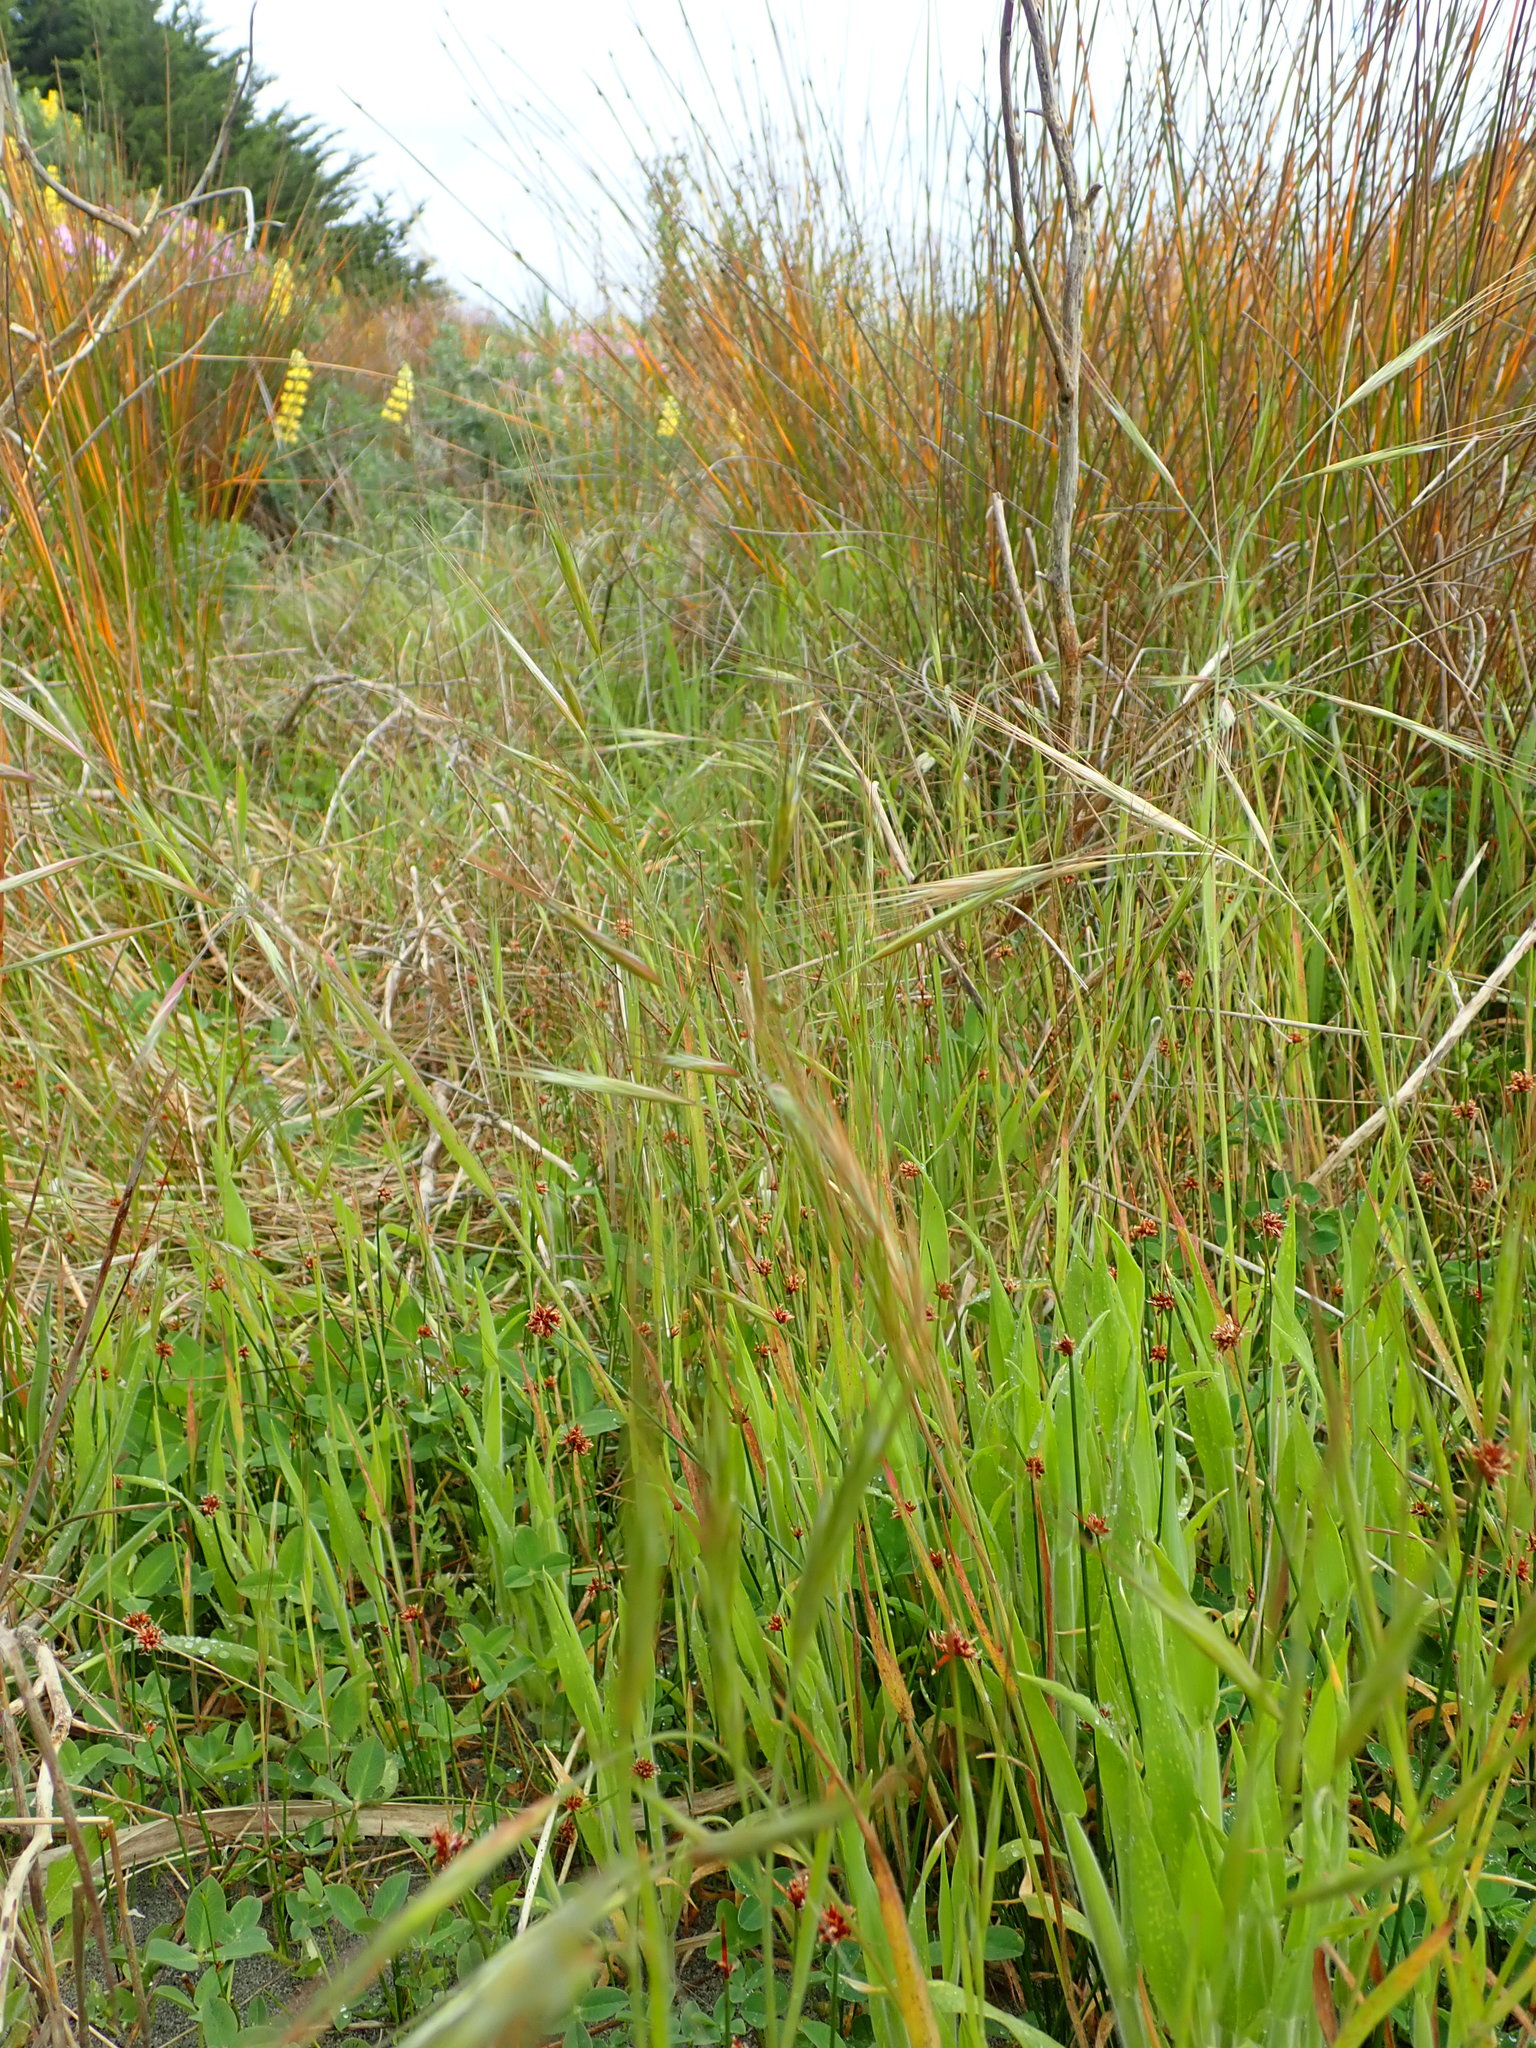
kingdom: Plantae
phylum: Tracheophyta
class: Liliopsida
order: Poales
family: Poaceae
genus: Bromus
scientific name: Bromus diandrus
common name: Ripgut brome
